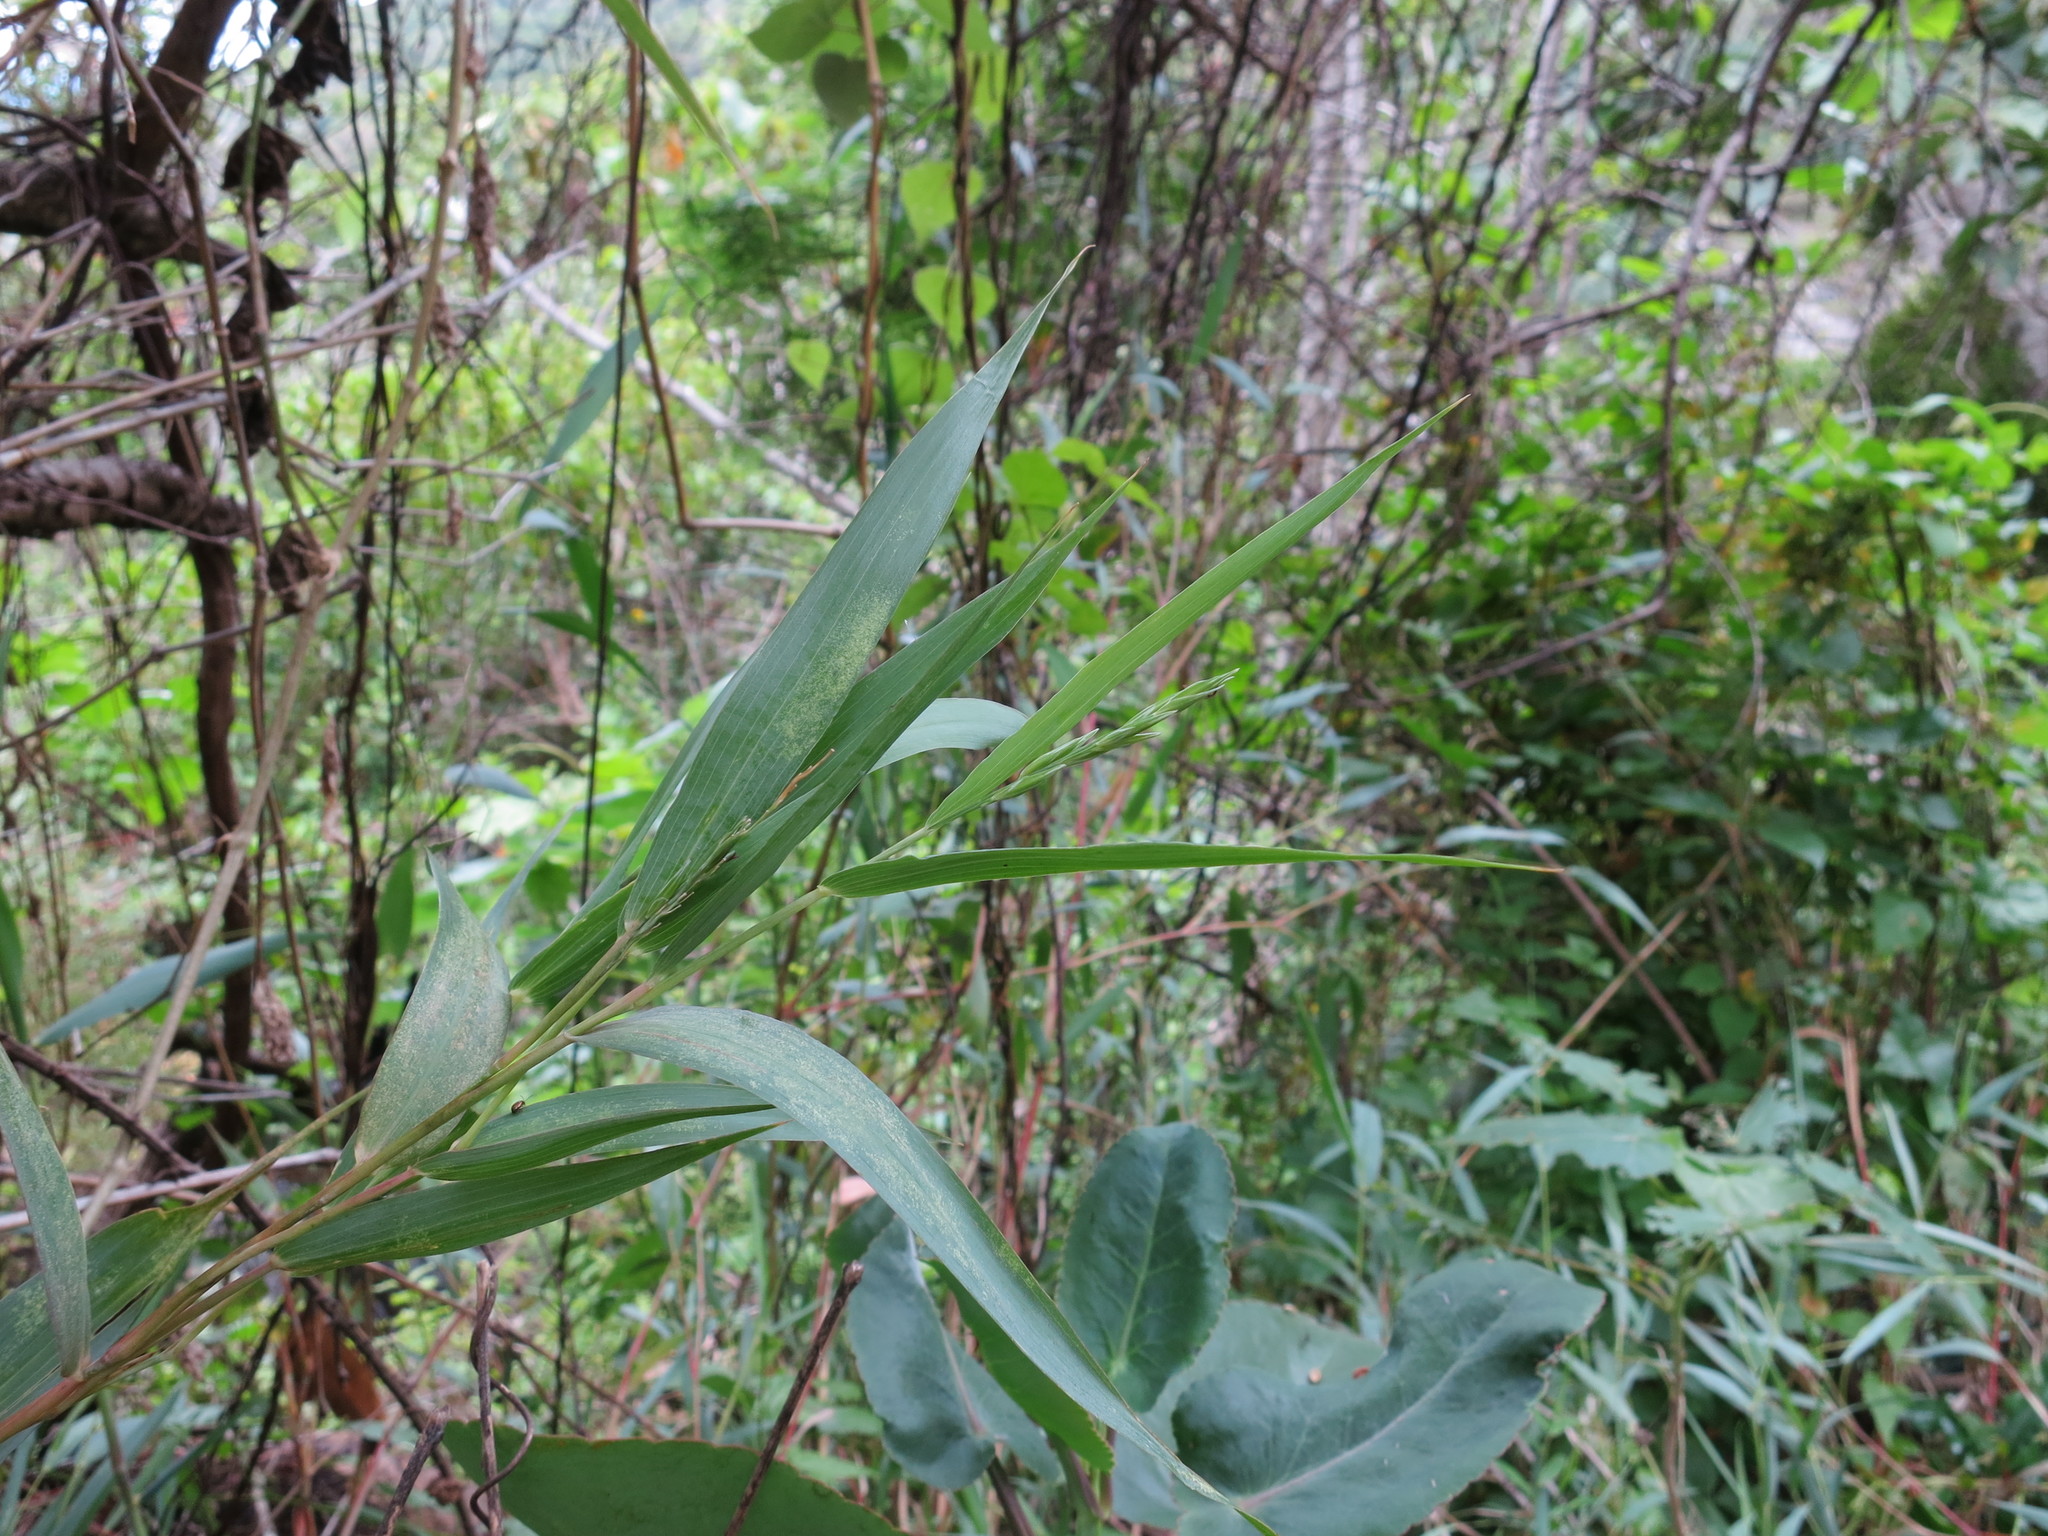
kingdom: Plantae
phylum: Tracheophyta
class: Liliopsida
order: Poales
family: Poaceae
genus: Lecomtella
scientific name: Lecomtella madagascariensis
